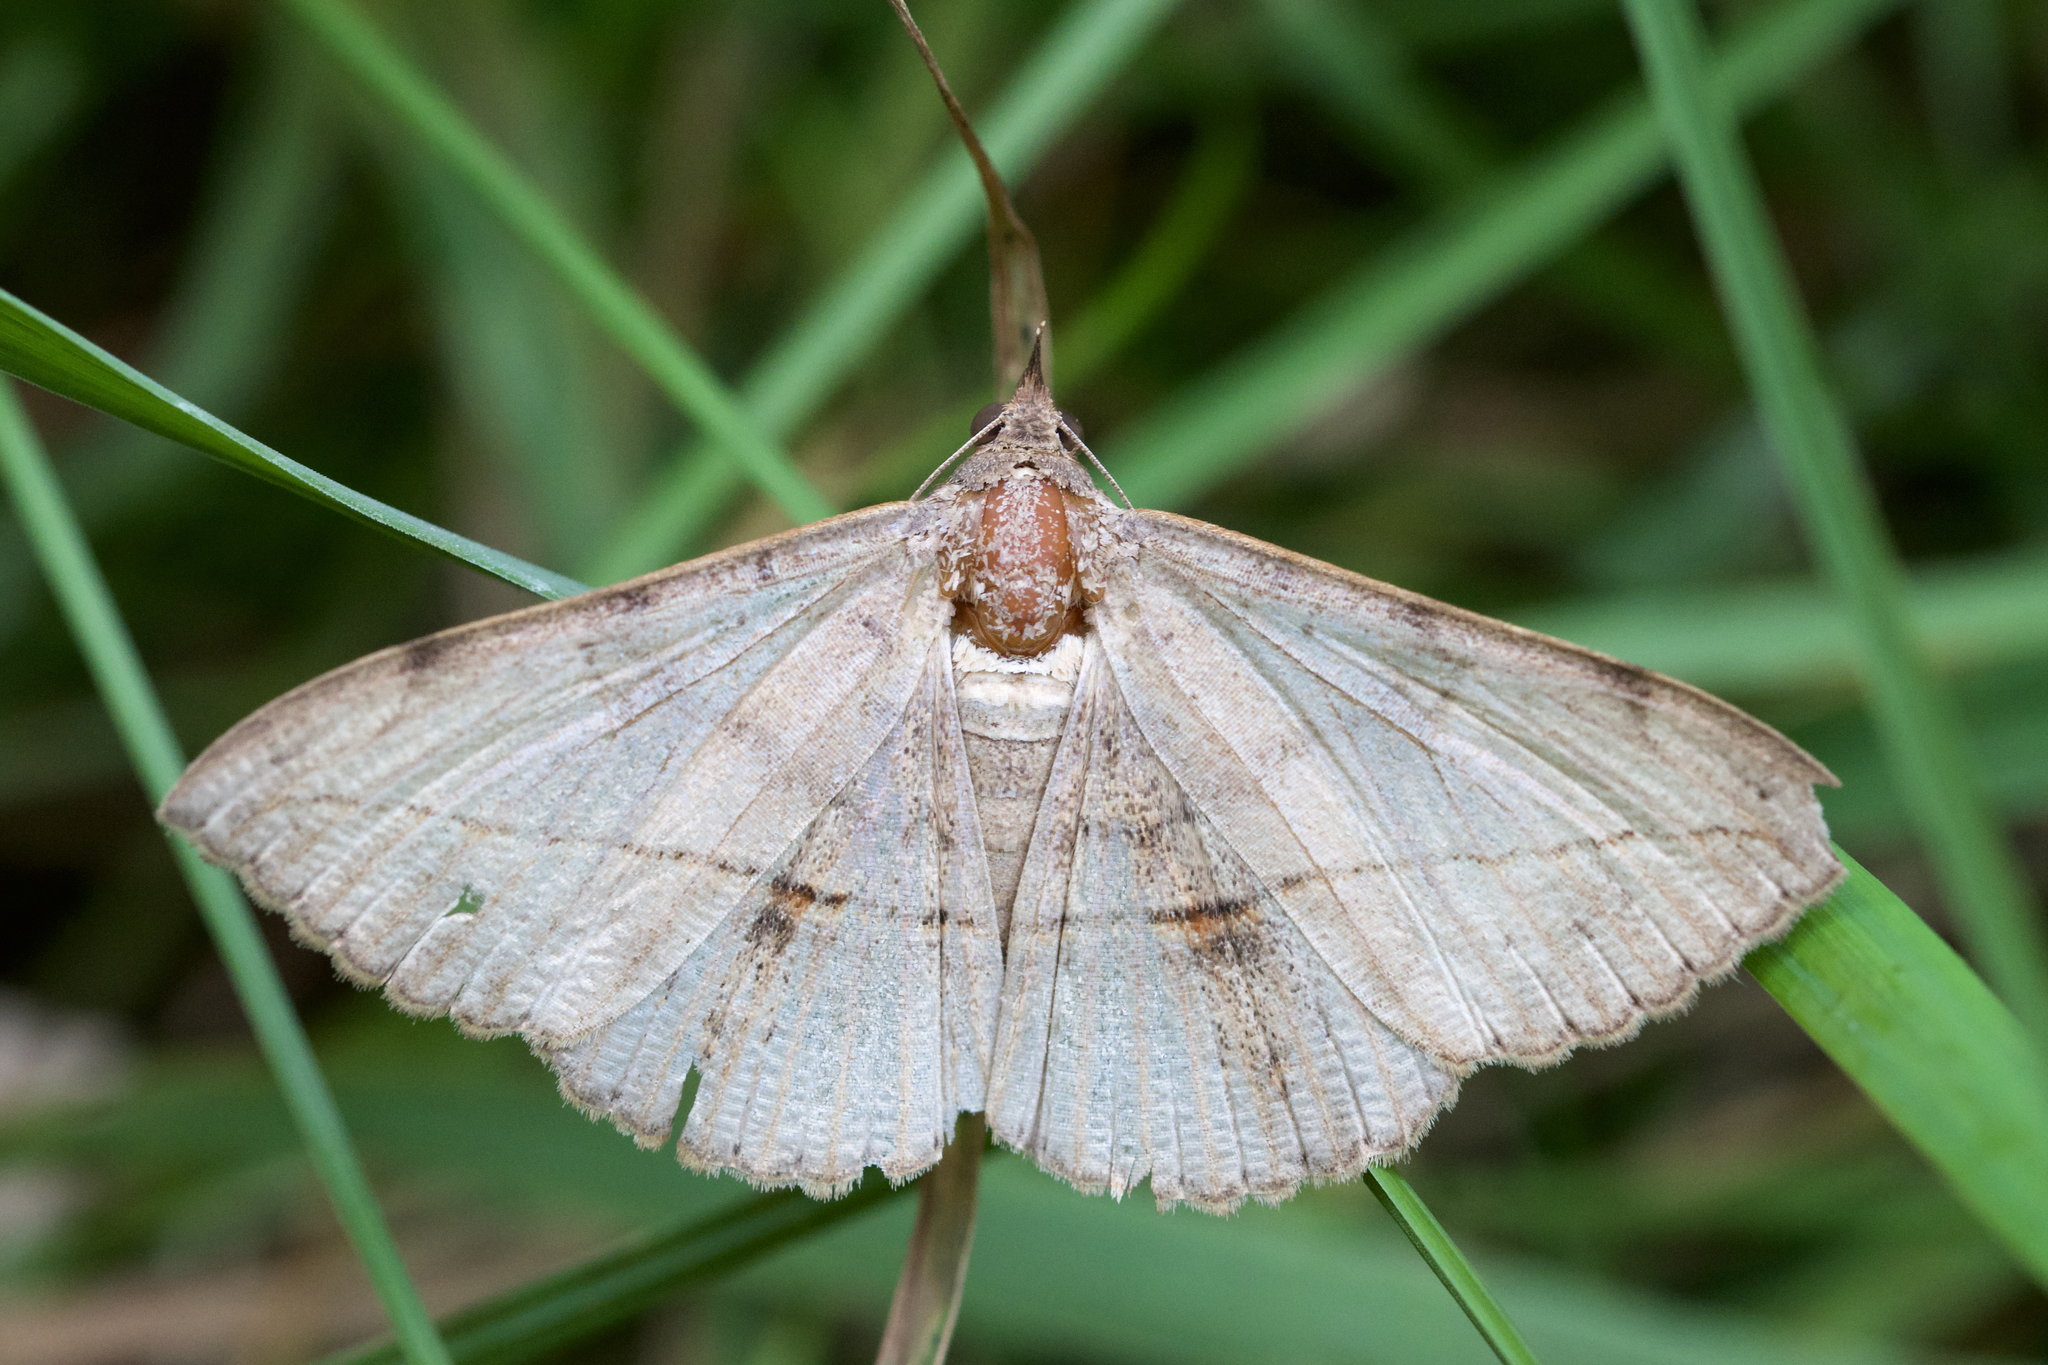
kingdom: Animalia
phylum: Arthropoda
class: Insecta
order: Lepidoptera
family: Erebidae
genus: Anticarsia
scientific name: Anticarsia gemmatalis
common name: Cutworm moth
